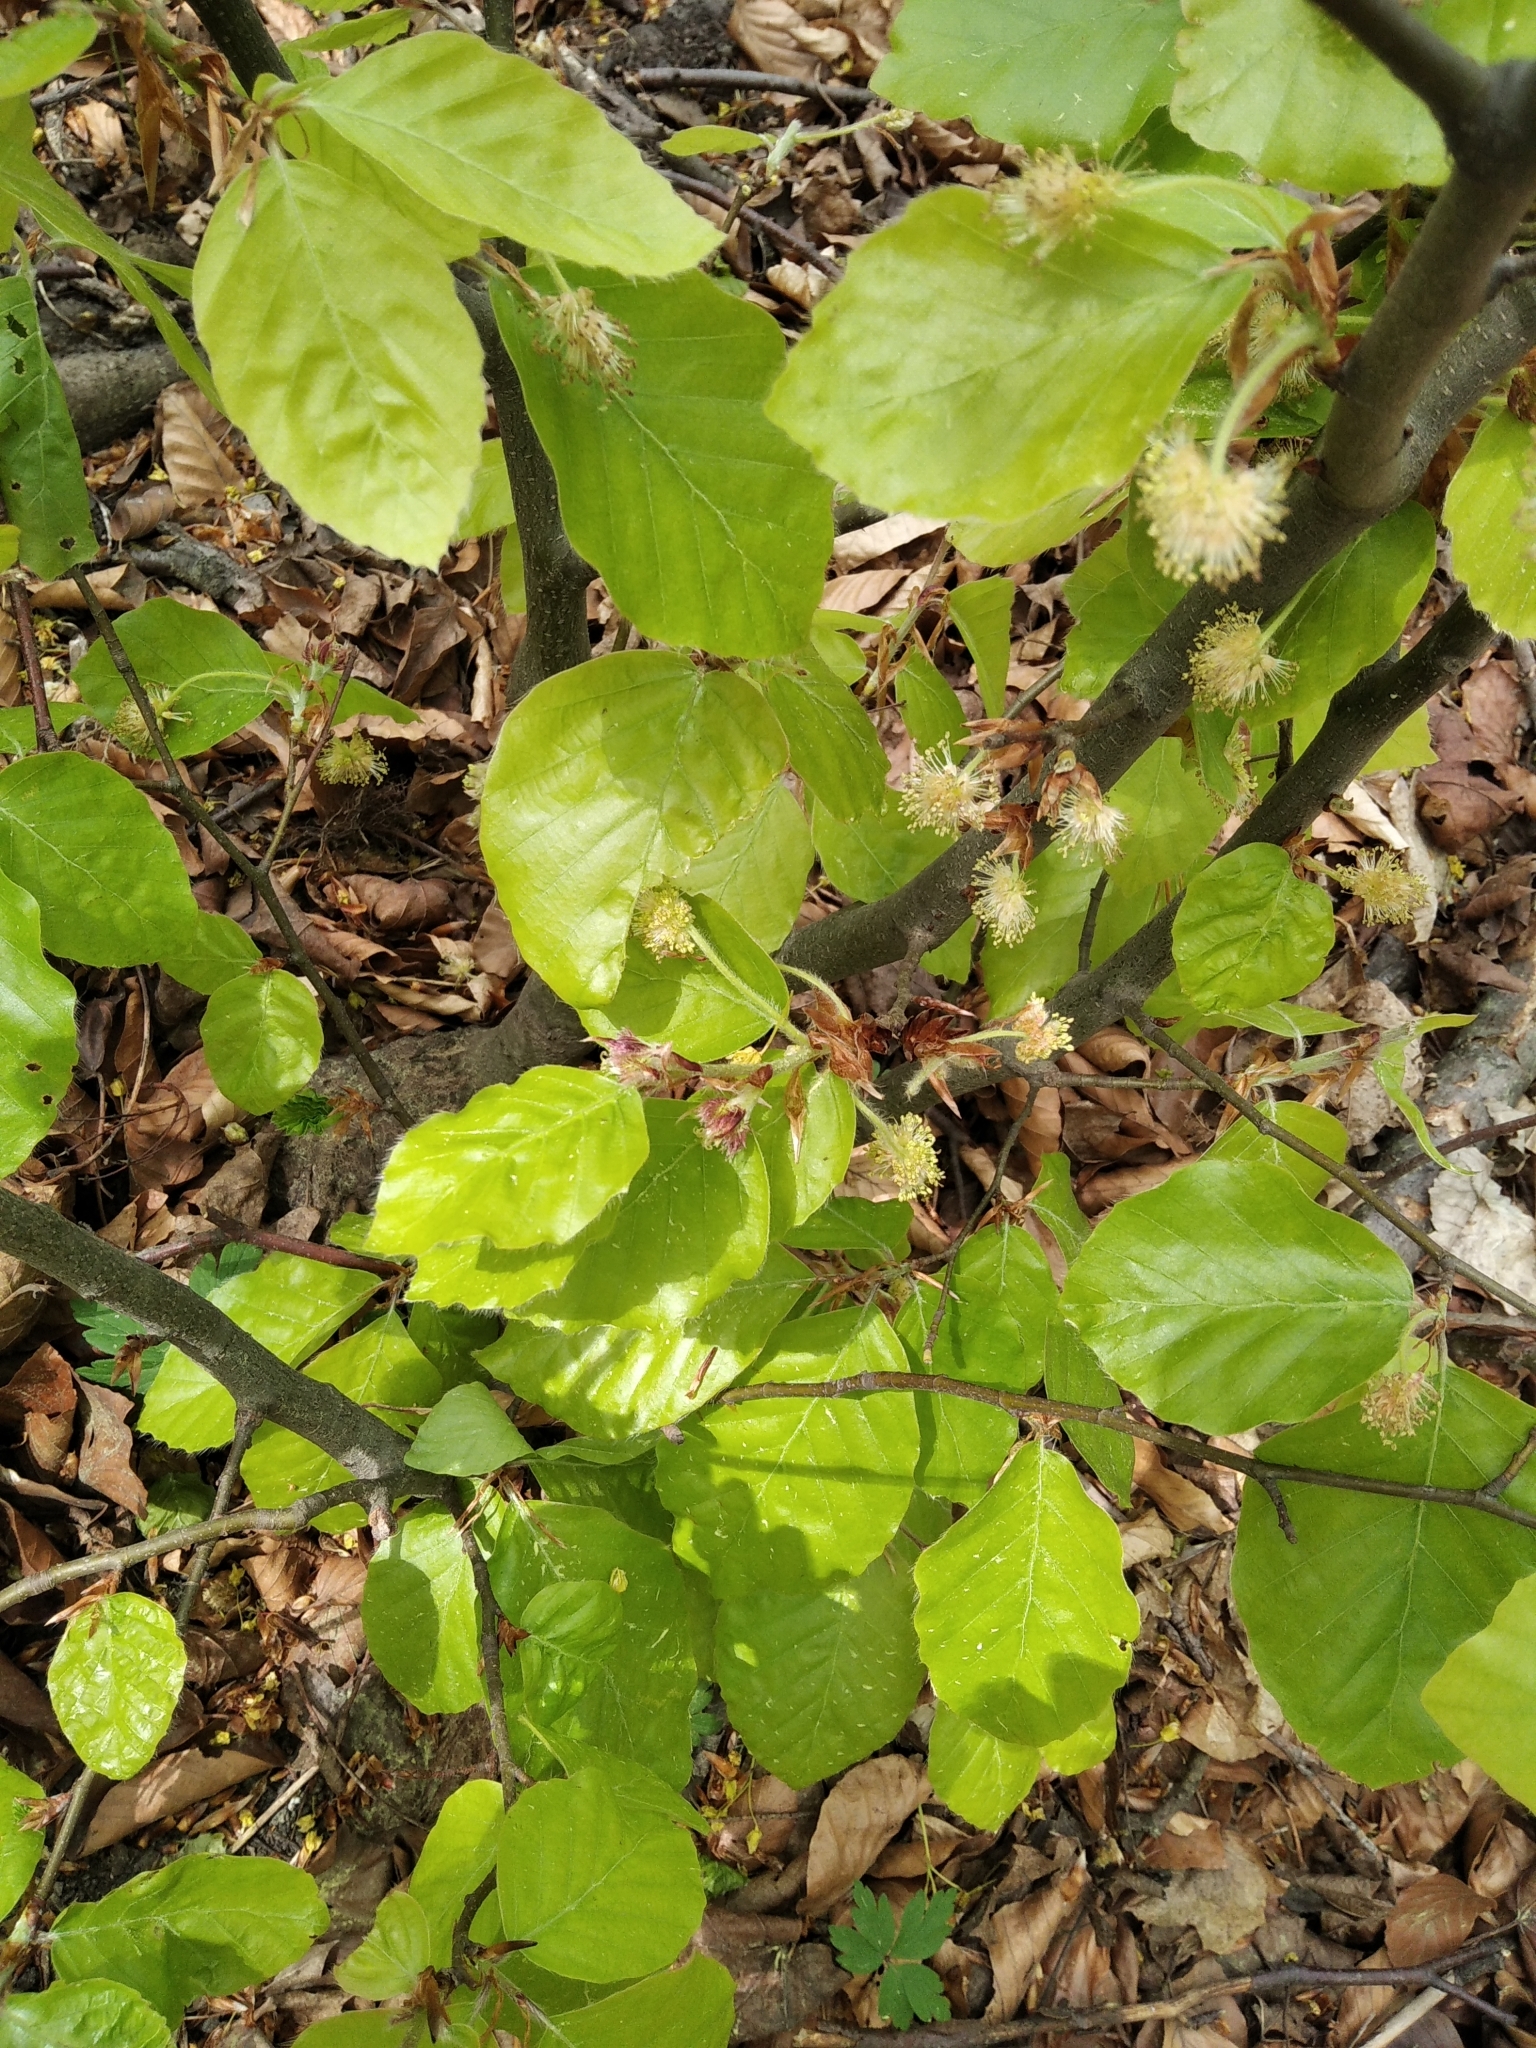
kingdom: Plantae
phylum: Tracheophyta
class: Magnoliopsida
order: Fagales
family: Fagaceae
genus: Fagus
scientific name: Fagus sylvatica
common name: Beech
